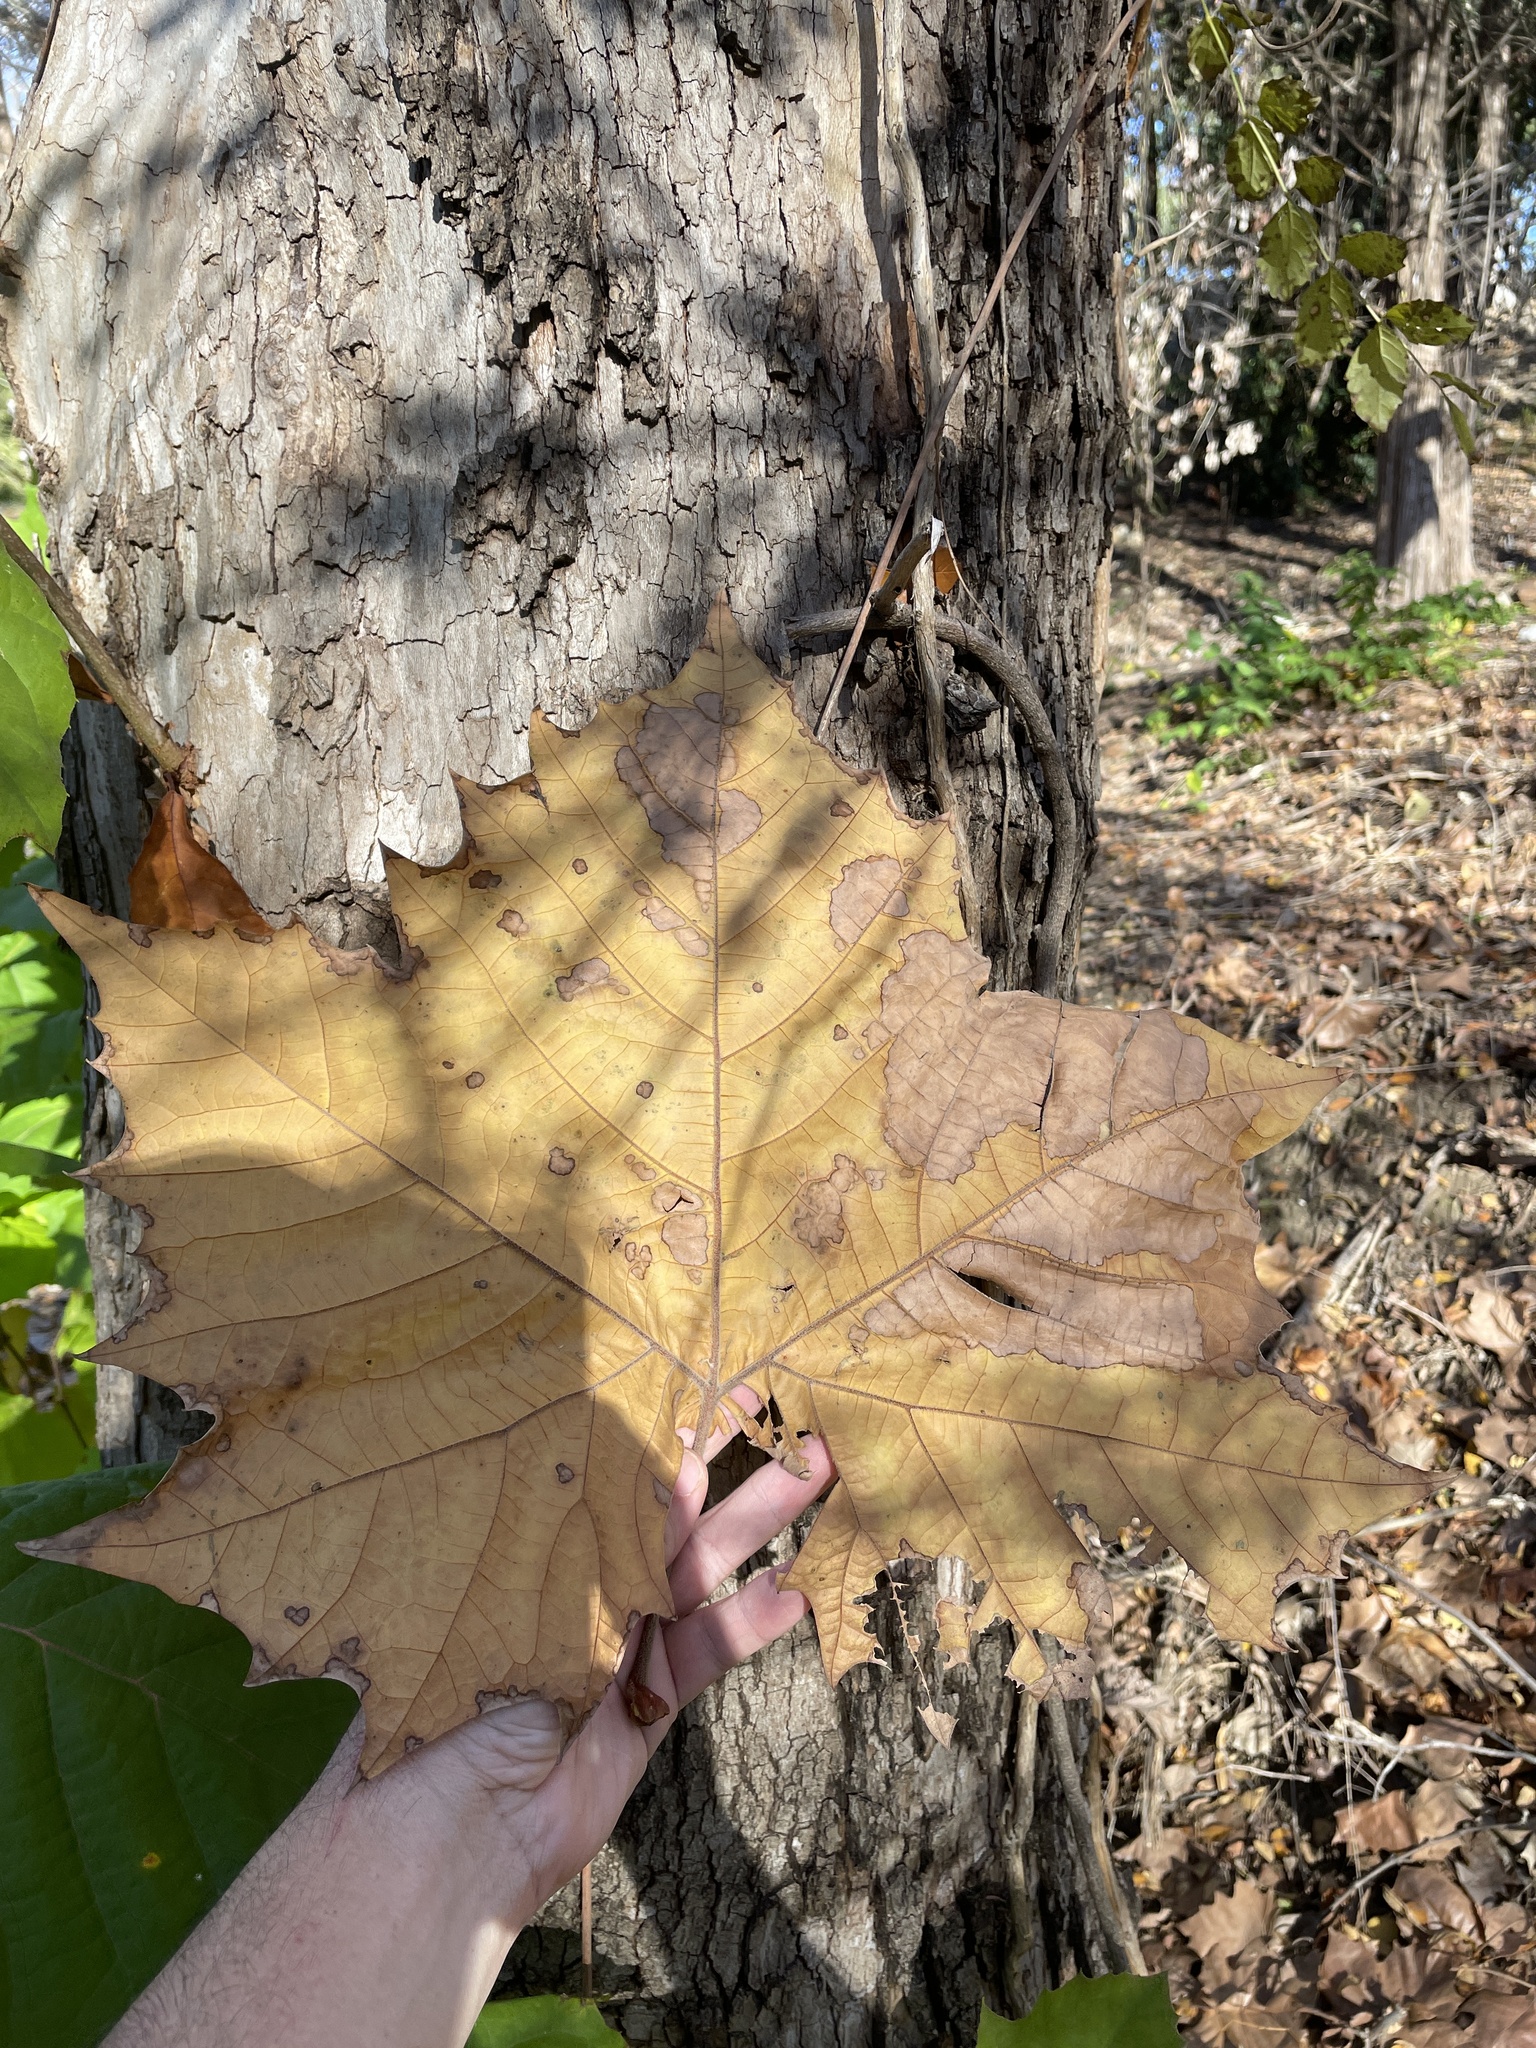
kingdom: Plantae
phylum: Tracheophyta
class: Magnoliopsida
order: Proteales
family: Platanaceae
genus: Platanus
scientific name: Platanus occidentalis
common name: American sycamore
